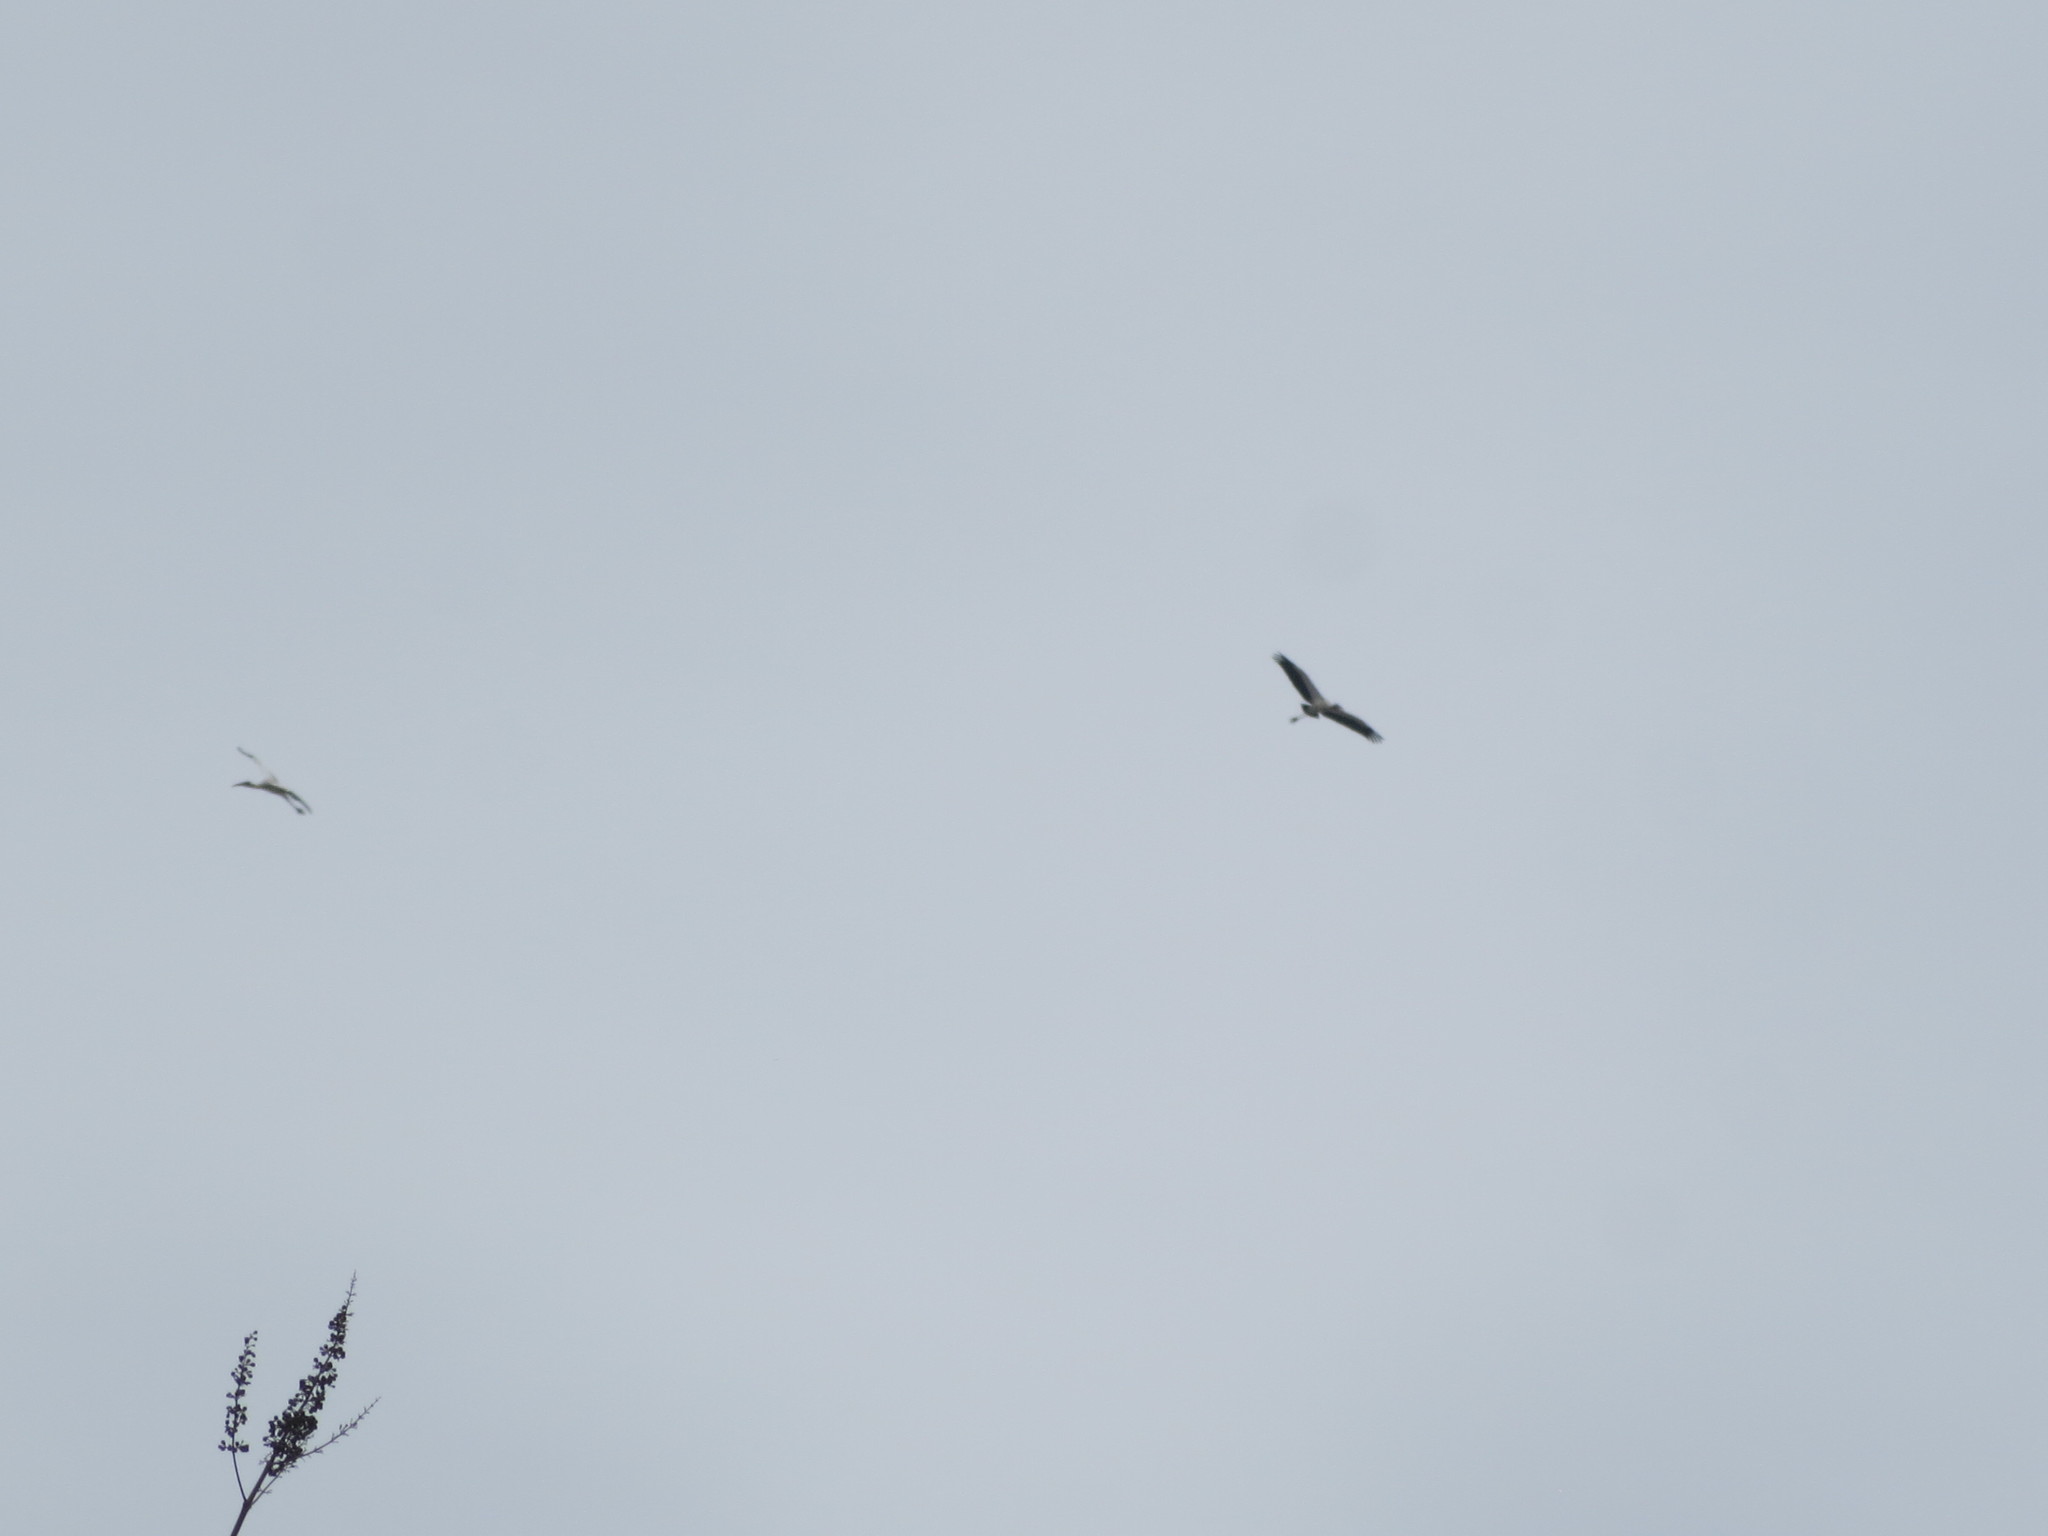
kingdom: Animalia
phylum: Chordata
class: Aves
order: Ciconiiformes
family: Ciconiidae
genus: Mycteria
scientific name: Mycteria americana
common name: Wood stork
